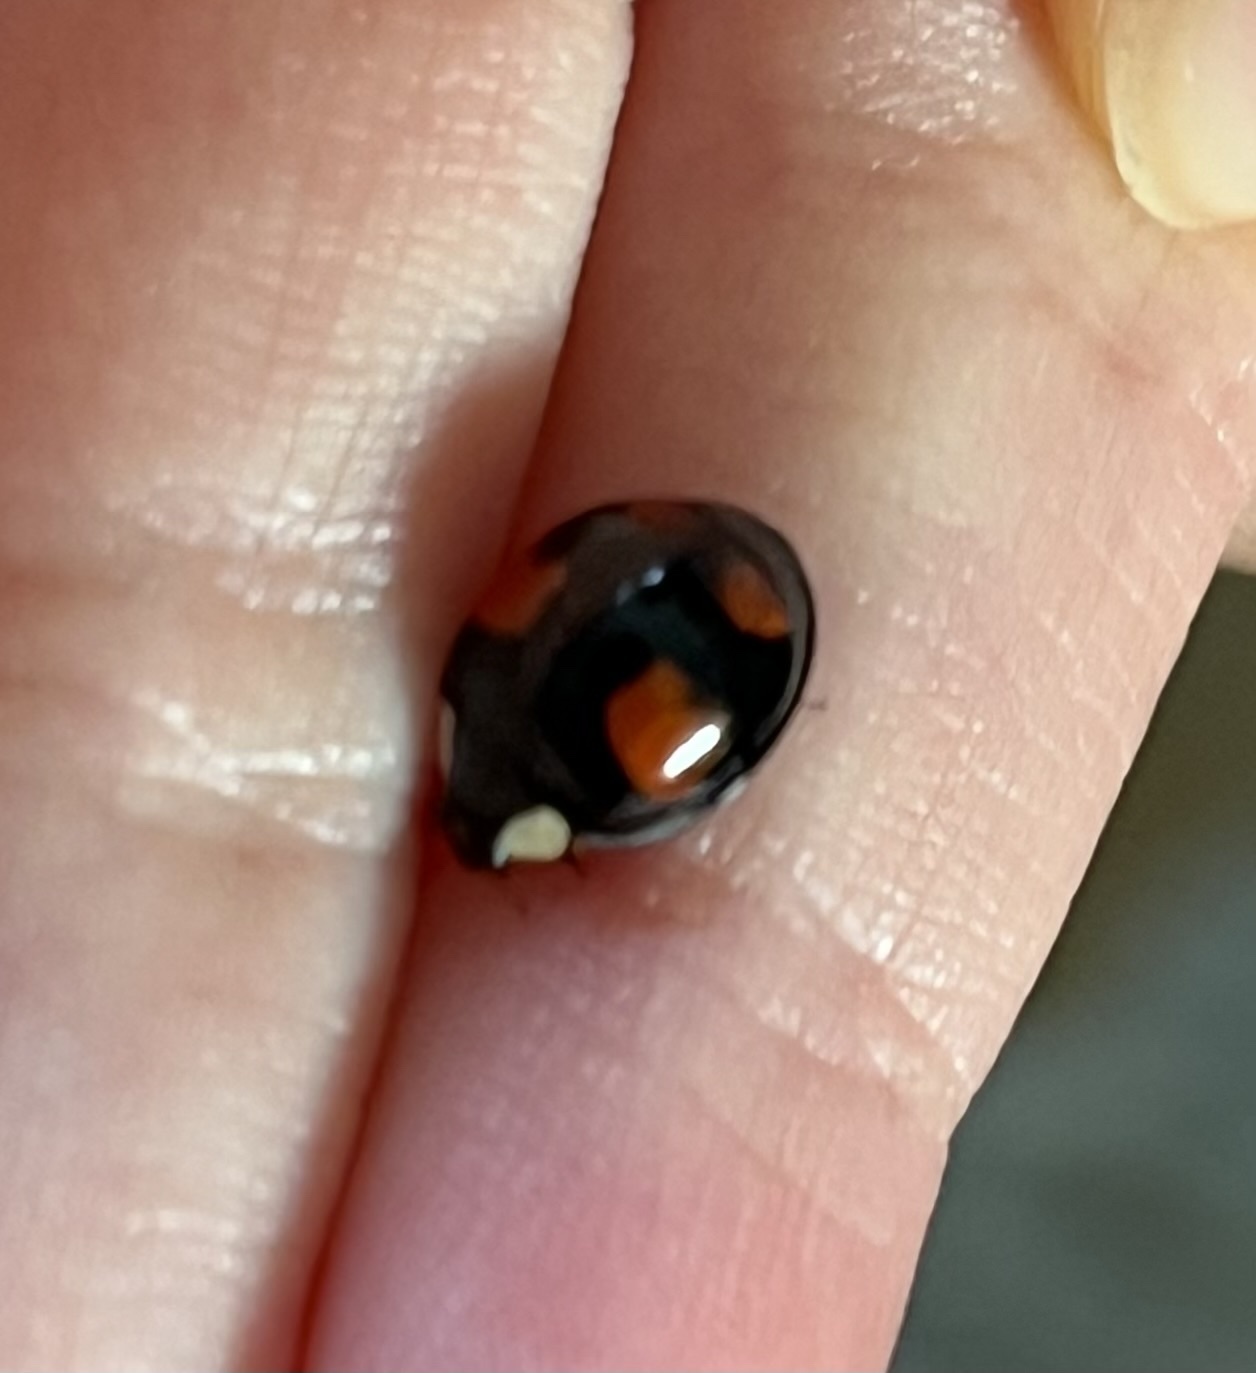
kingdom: Animalia
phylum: Arthropoda
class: Insecta
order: Coleoptera
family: Coccinellidae
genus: Harmonia
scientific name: Harmonia axyridis
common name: Harlequin ladybird
